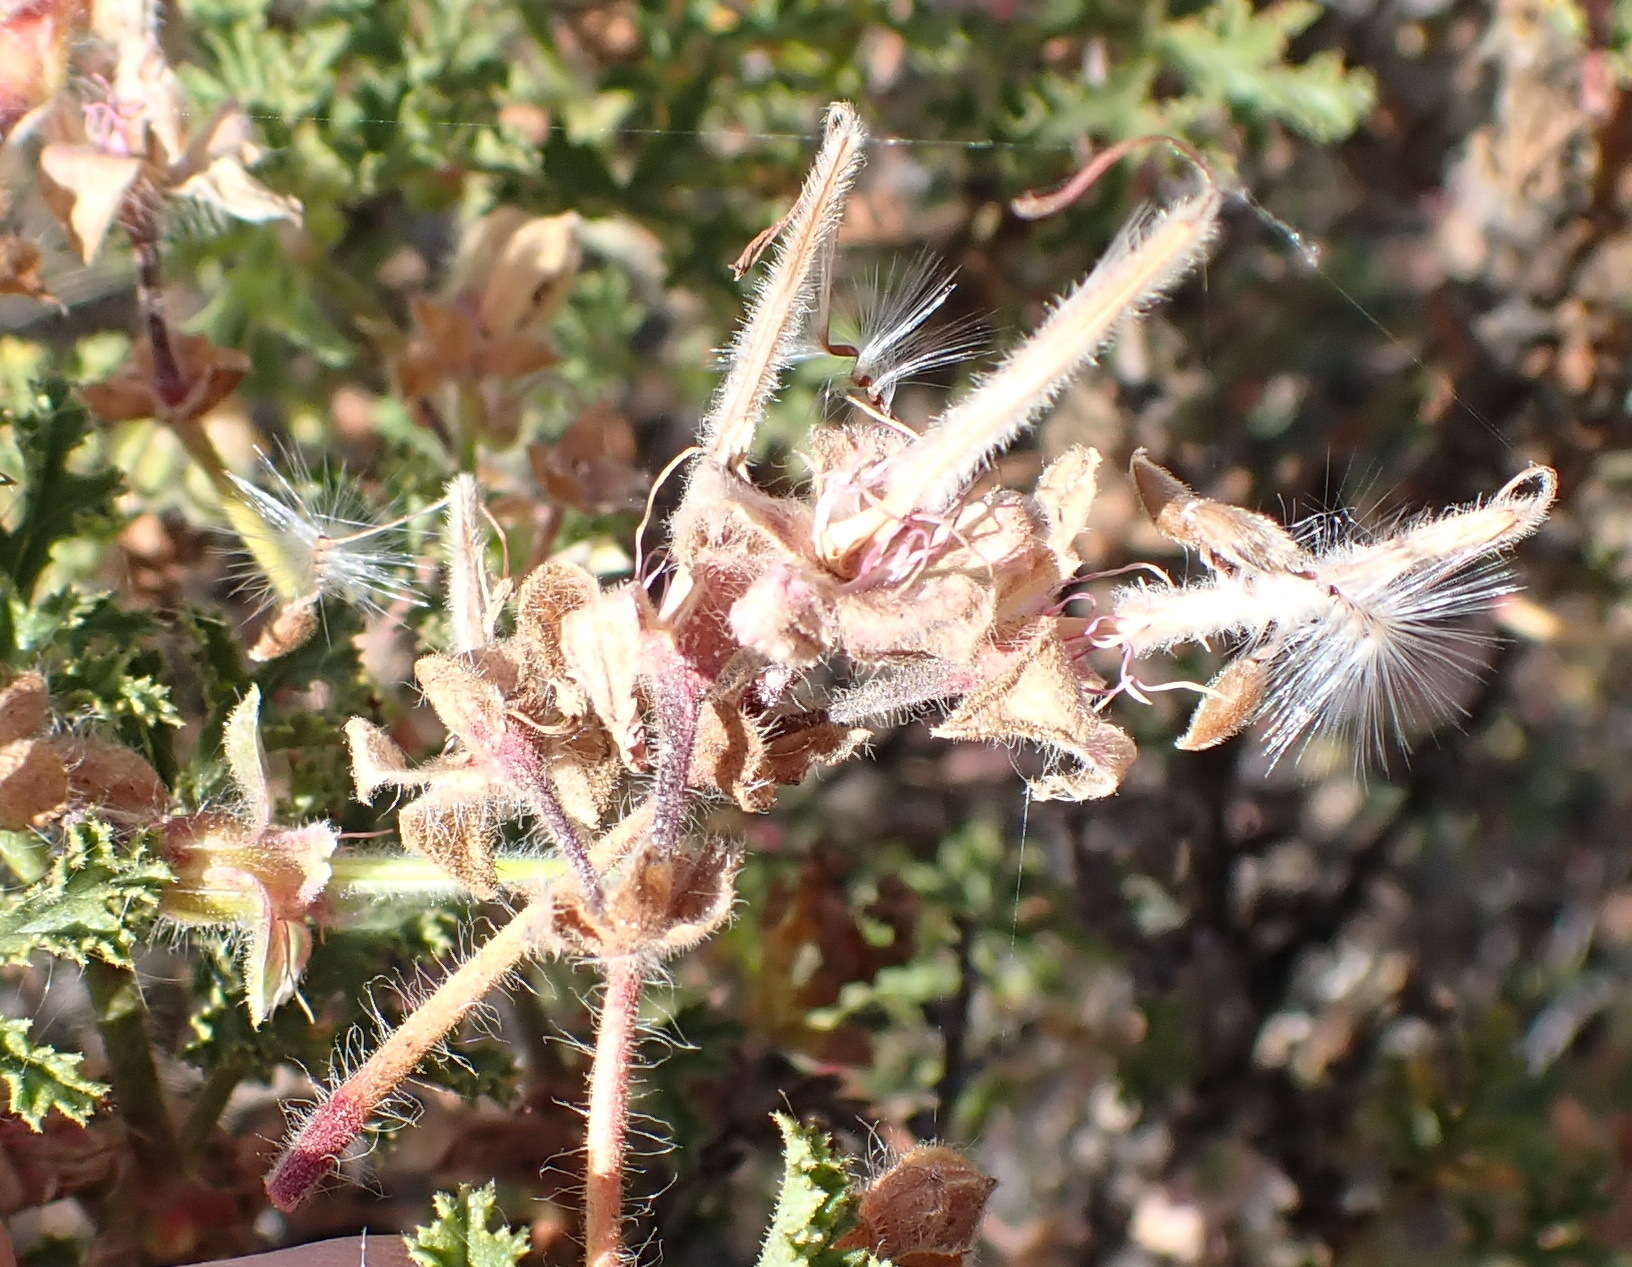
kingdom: Plantae
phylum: Tracheophyta
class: Magnoliopsida
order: Geraniales
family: Geraniaceae
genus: Pelargonium
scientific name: Pelargonium quercifolium
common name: Oakleaf geranium
